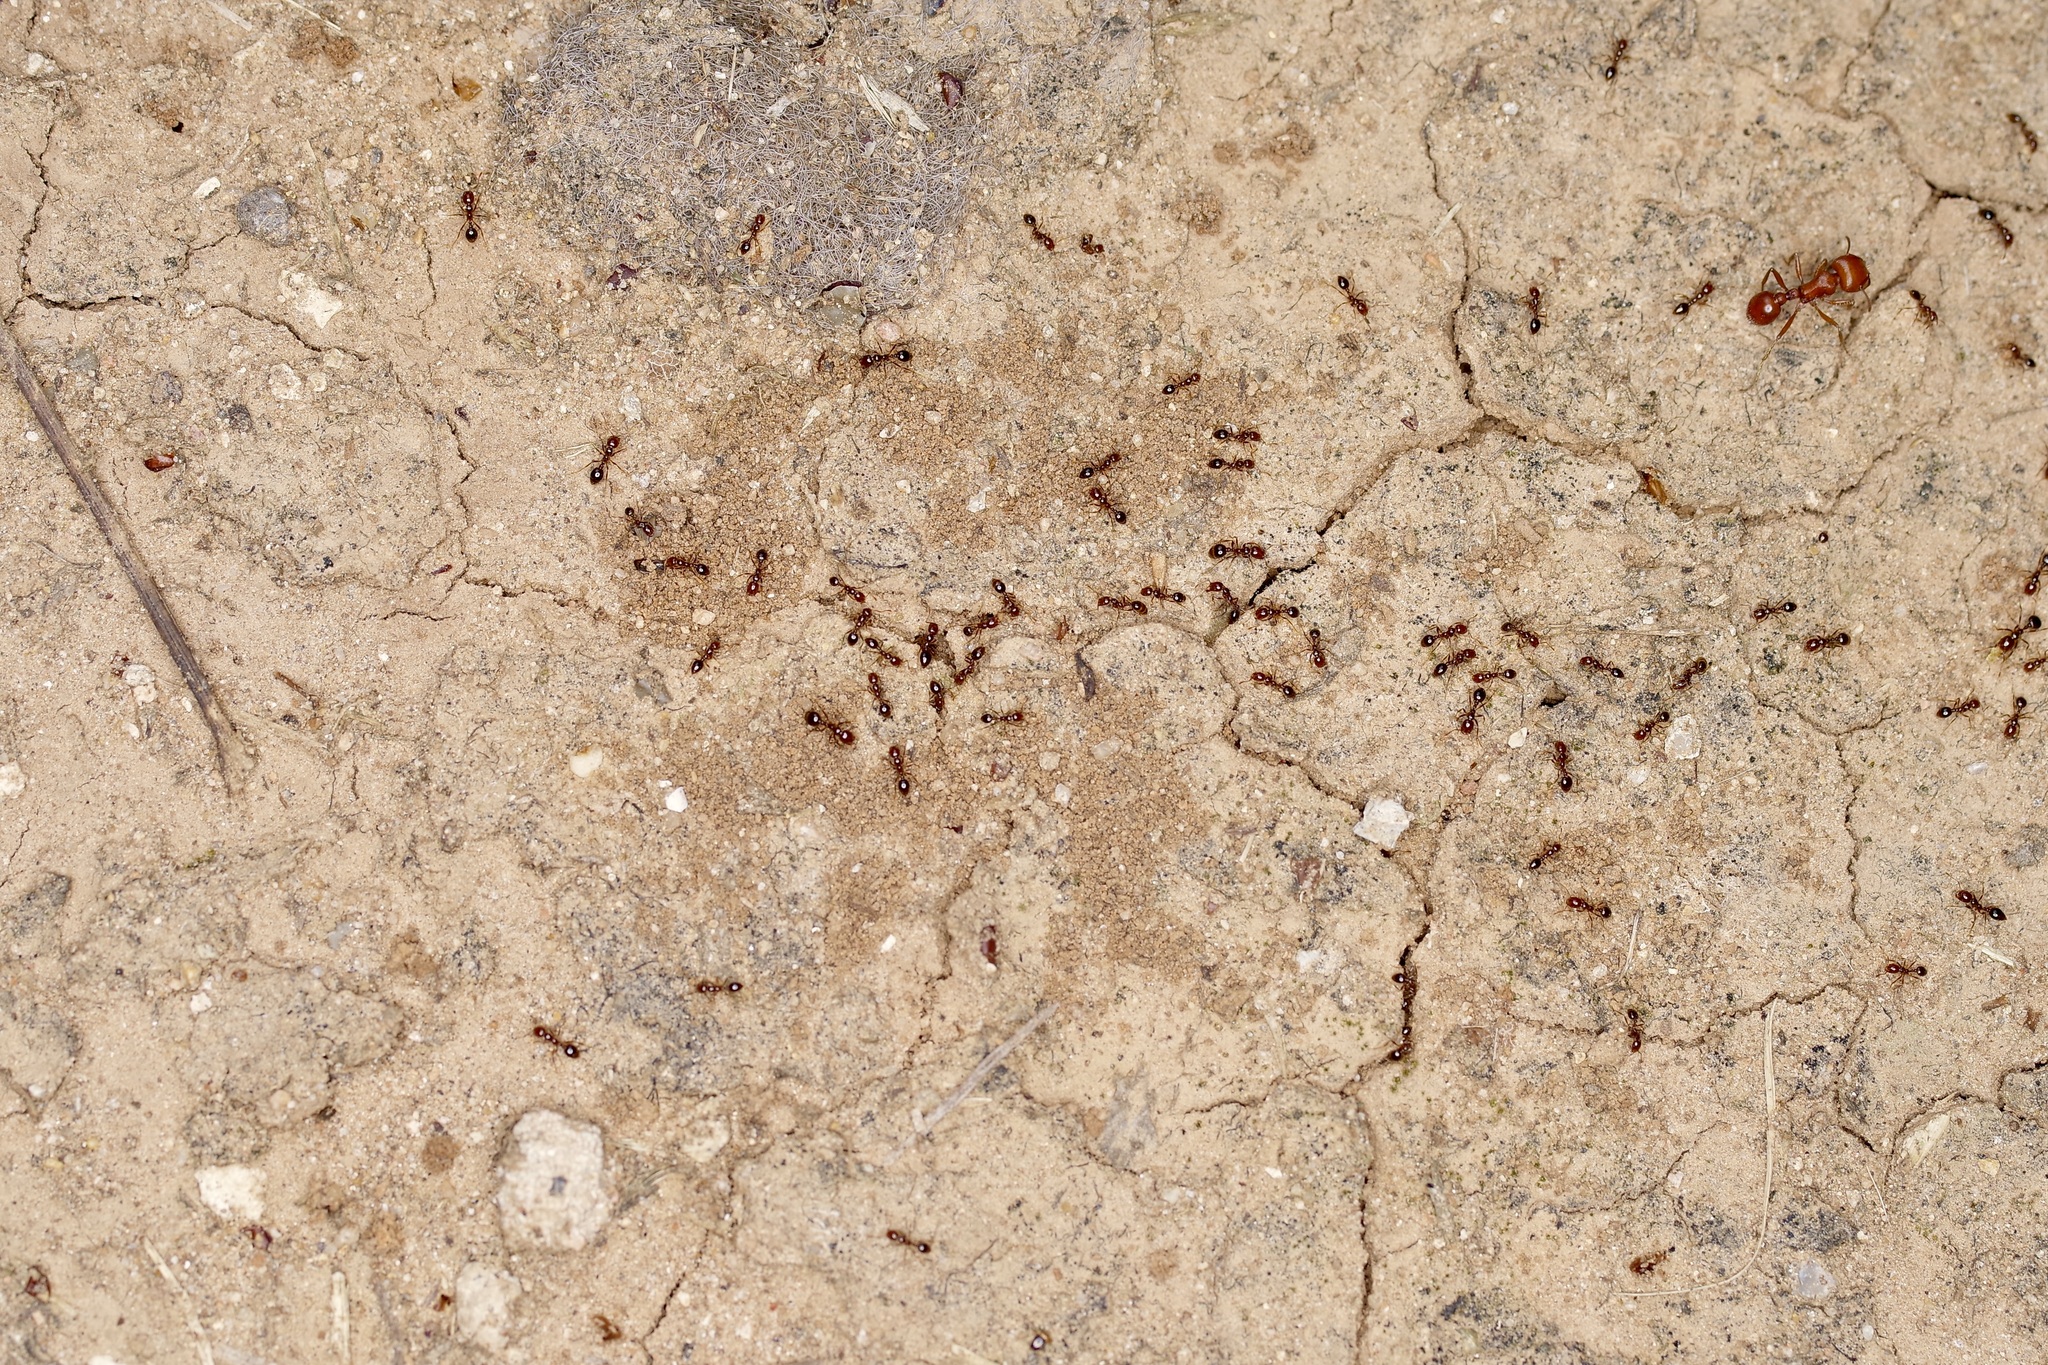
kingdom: Animalia
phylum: Arthropoda
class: Insecta
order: Hymenoptera
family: Formicidae
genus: Solenopsis
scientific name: Solenopsis invicta
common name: Red imported fire ant
